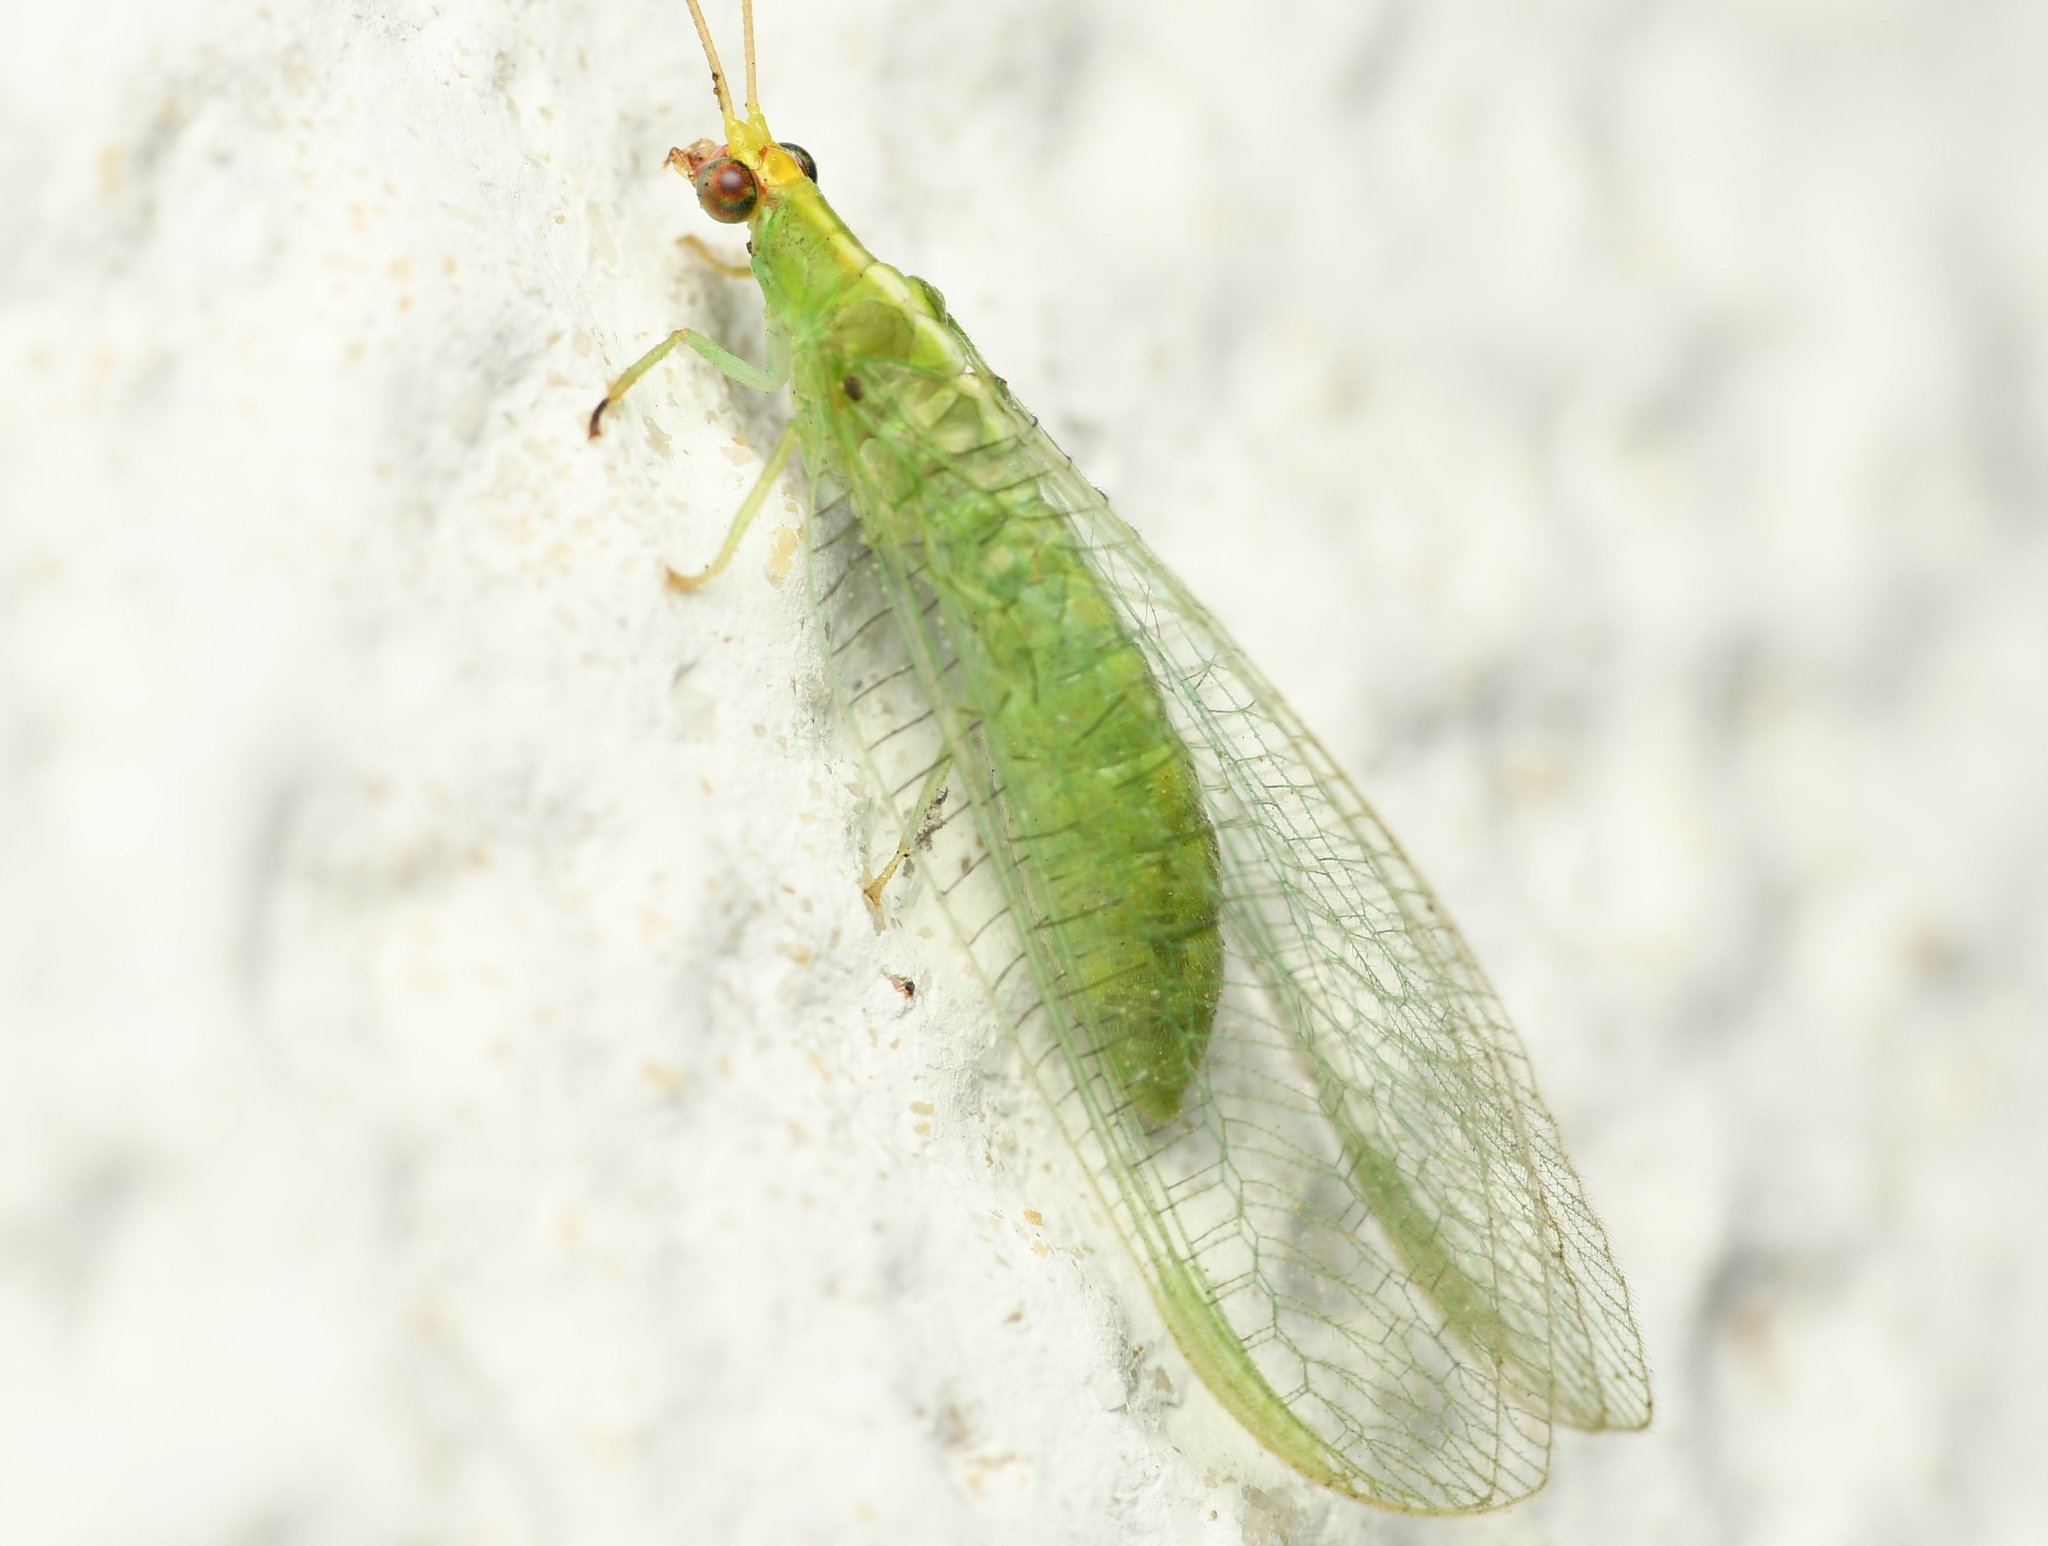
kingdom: Animalia
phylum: Arthropoda
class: Insecta
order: Neuroptera
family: Chrysopidae
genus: Chrysopodes
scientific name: Chrysopodes collaris
